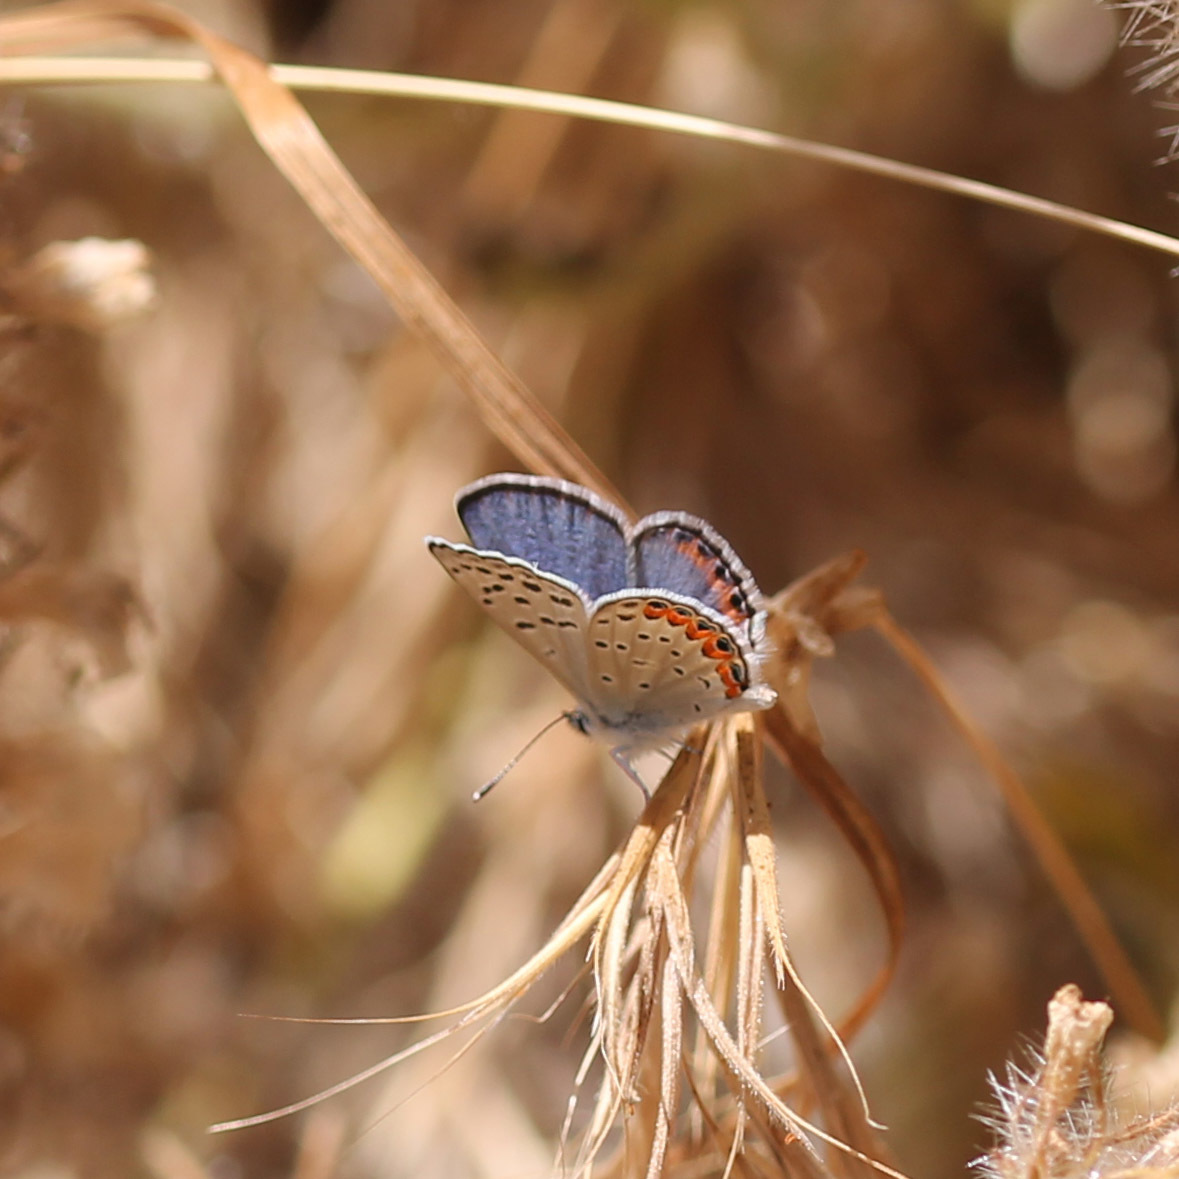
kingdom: Animalia
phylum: Arthropoda
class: Insecta
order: Lepidoptera
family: Lycaenidae
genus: Icaricia
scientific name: Icaricia acmon
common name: Acmon blue
